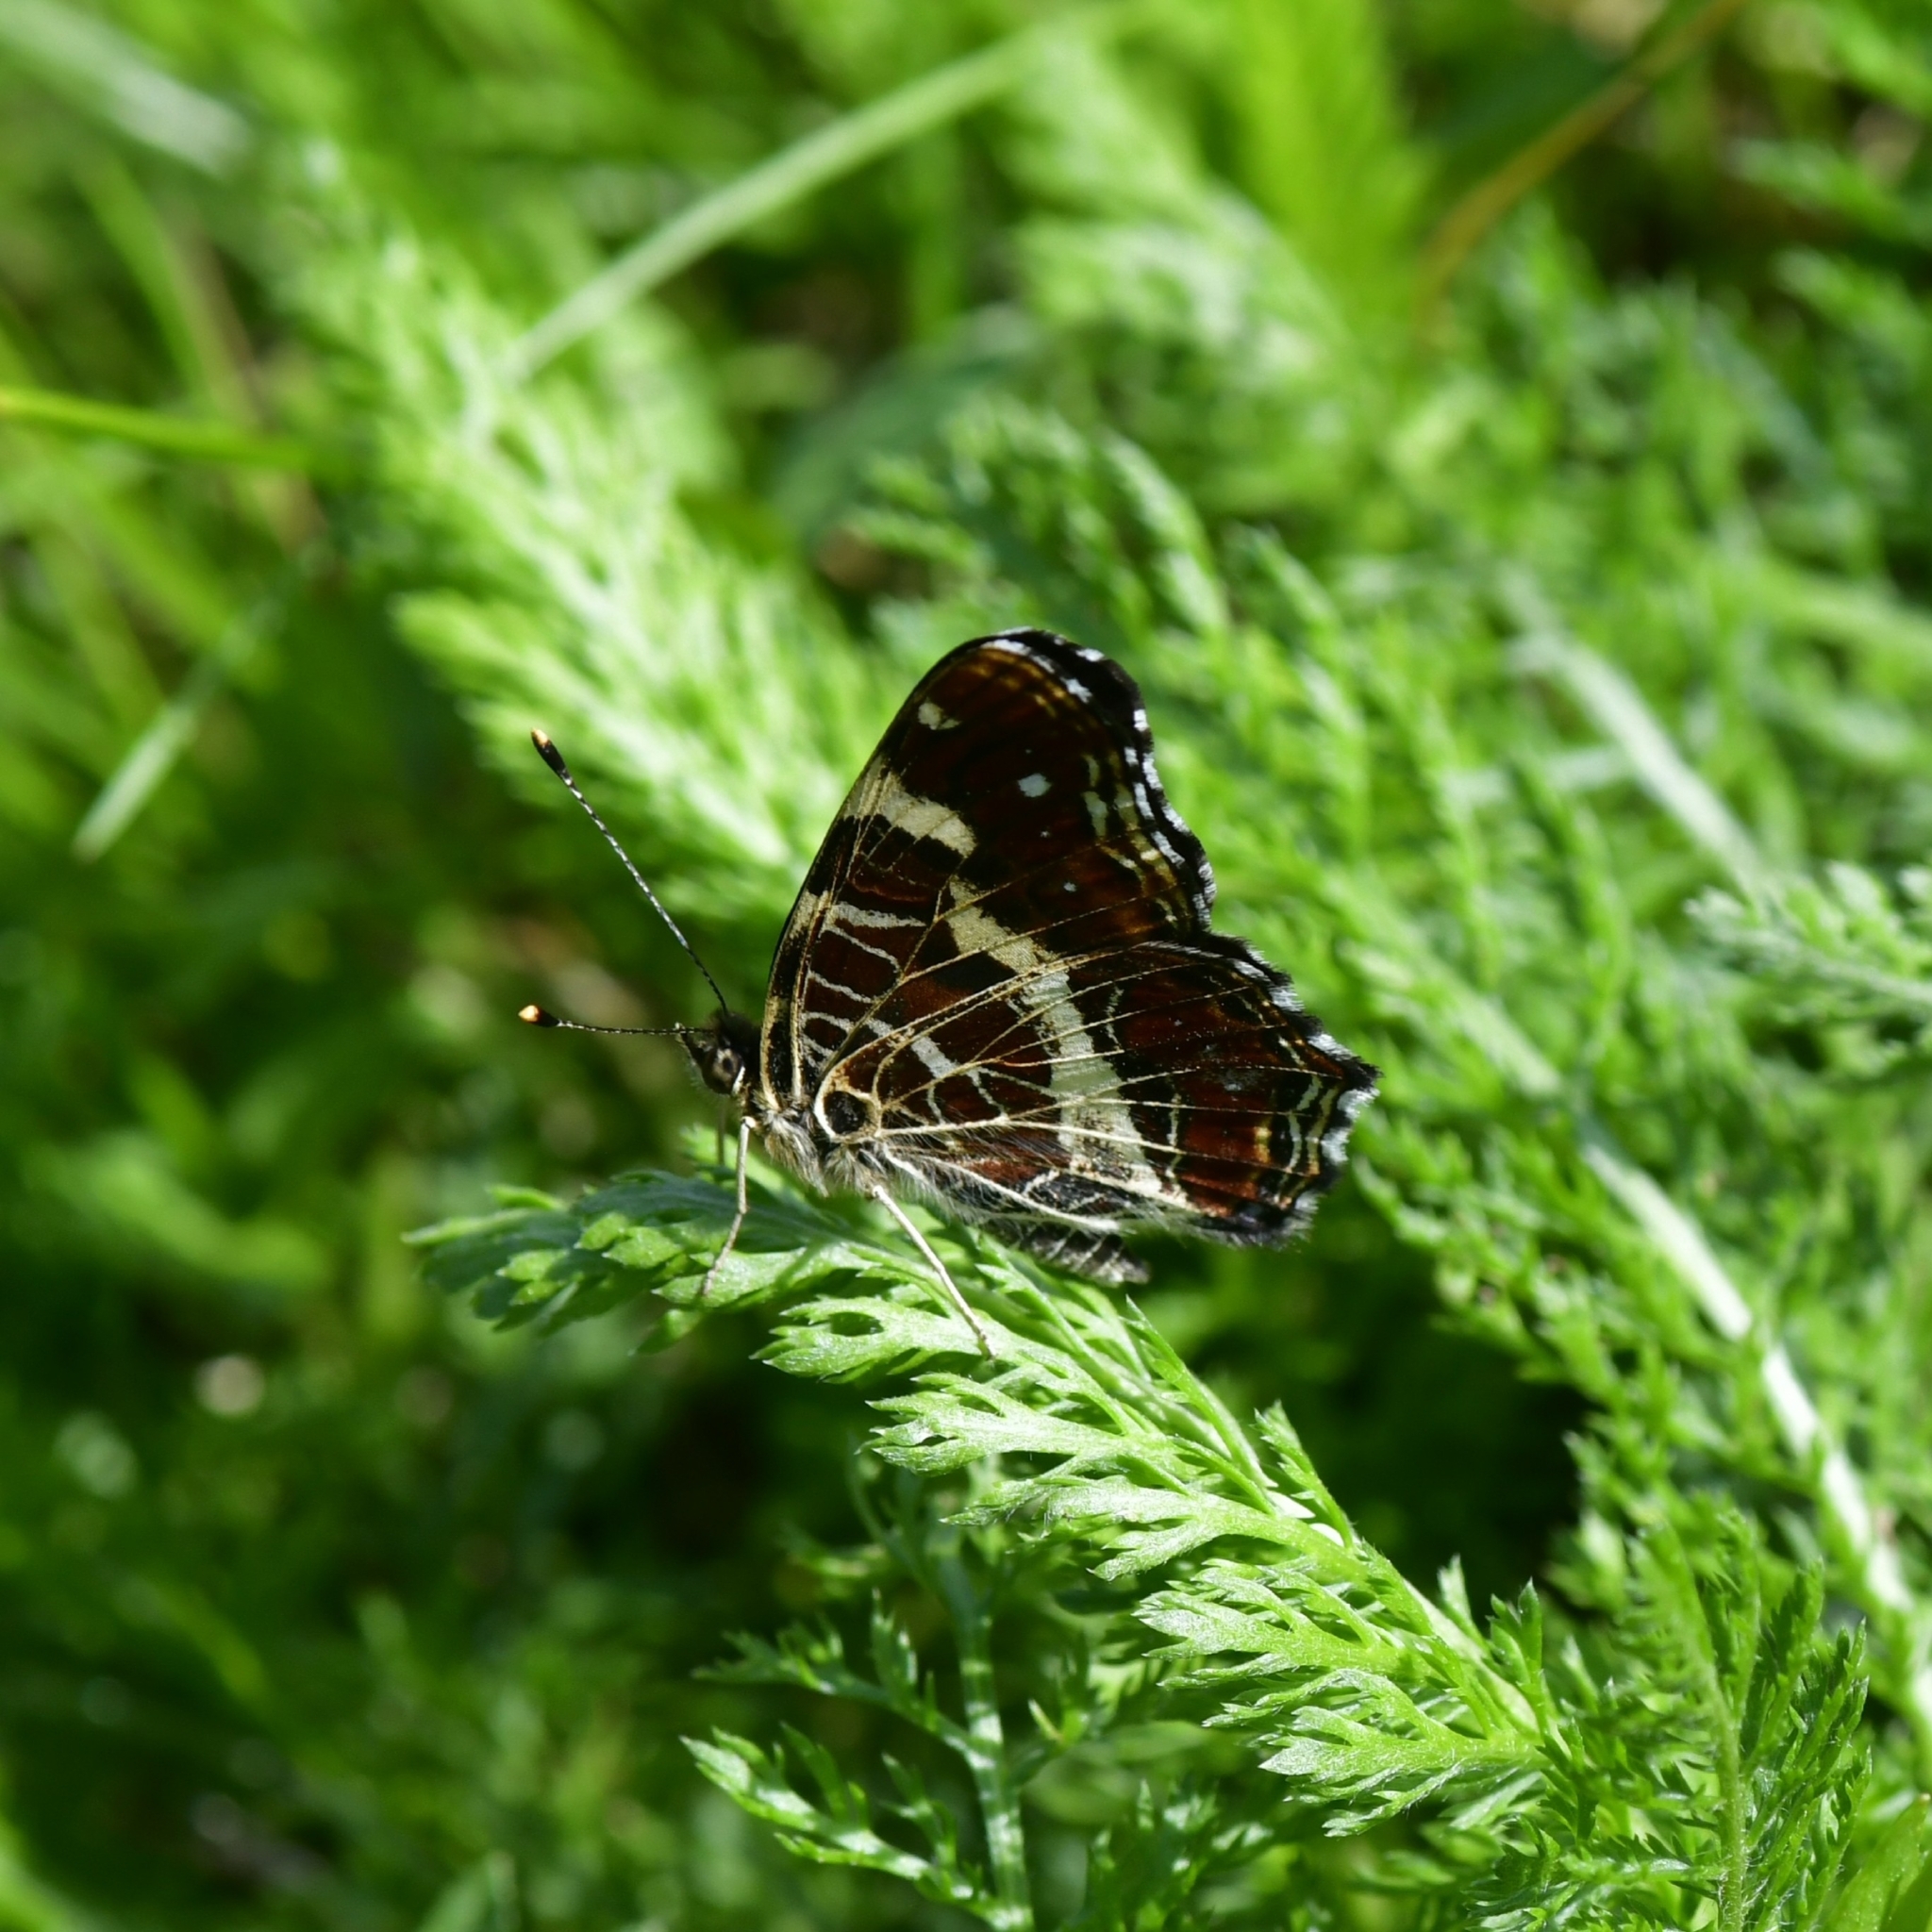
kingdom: Animalia
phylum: Arthropoda
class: Insecta
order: Lepidoptera
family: Nymphalidae
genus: Araschnia
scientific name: Araschnia levana
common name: Map butterfly
